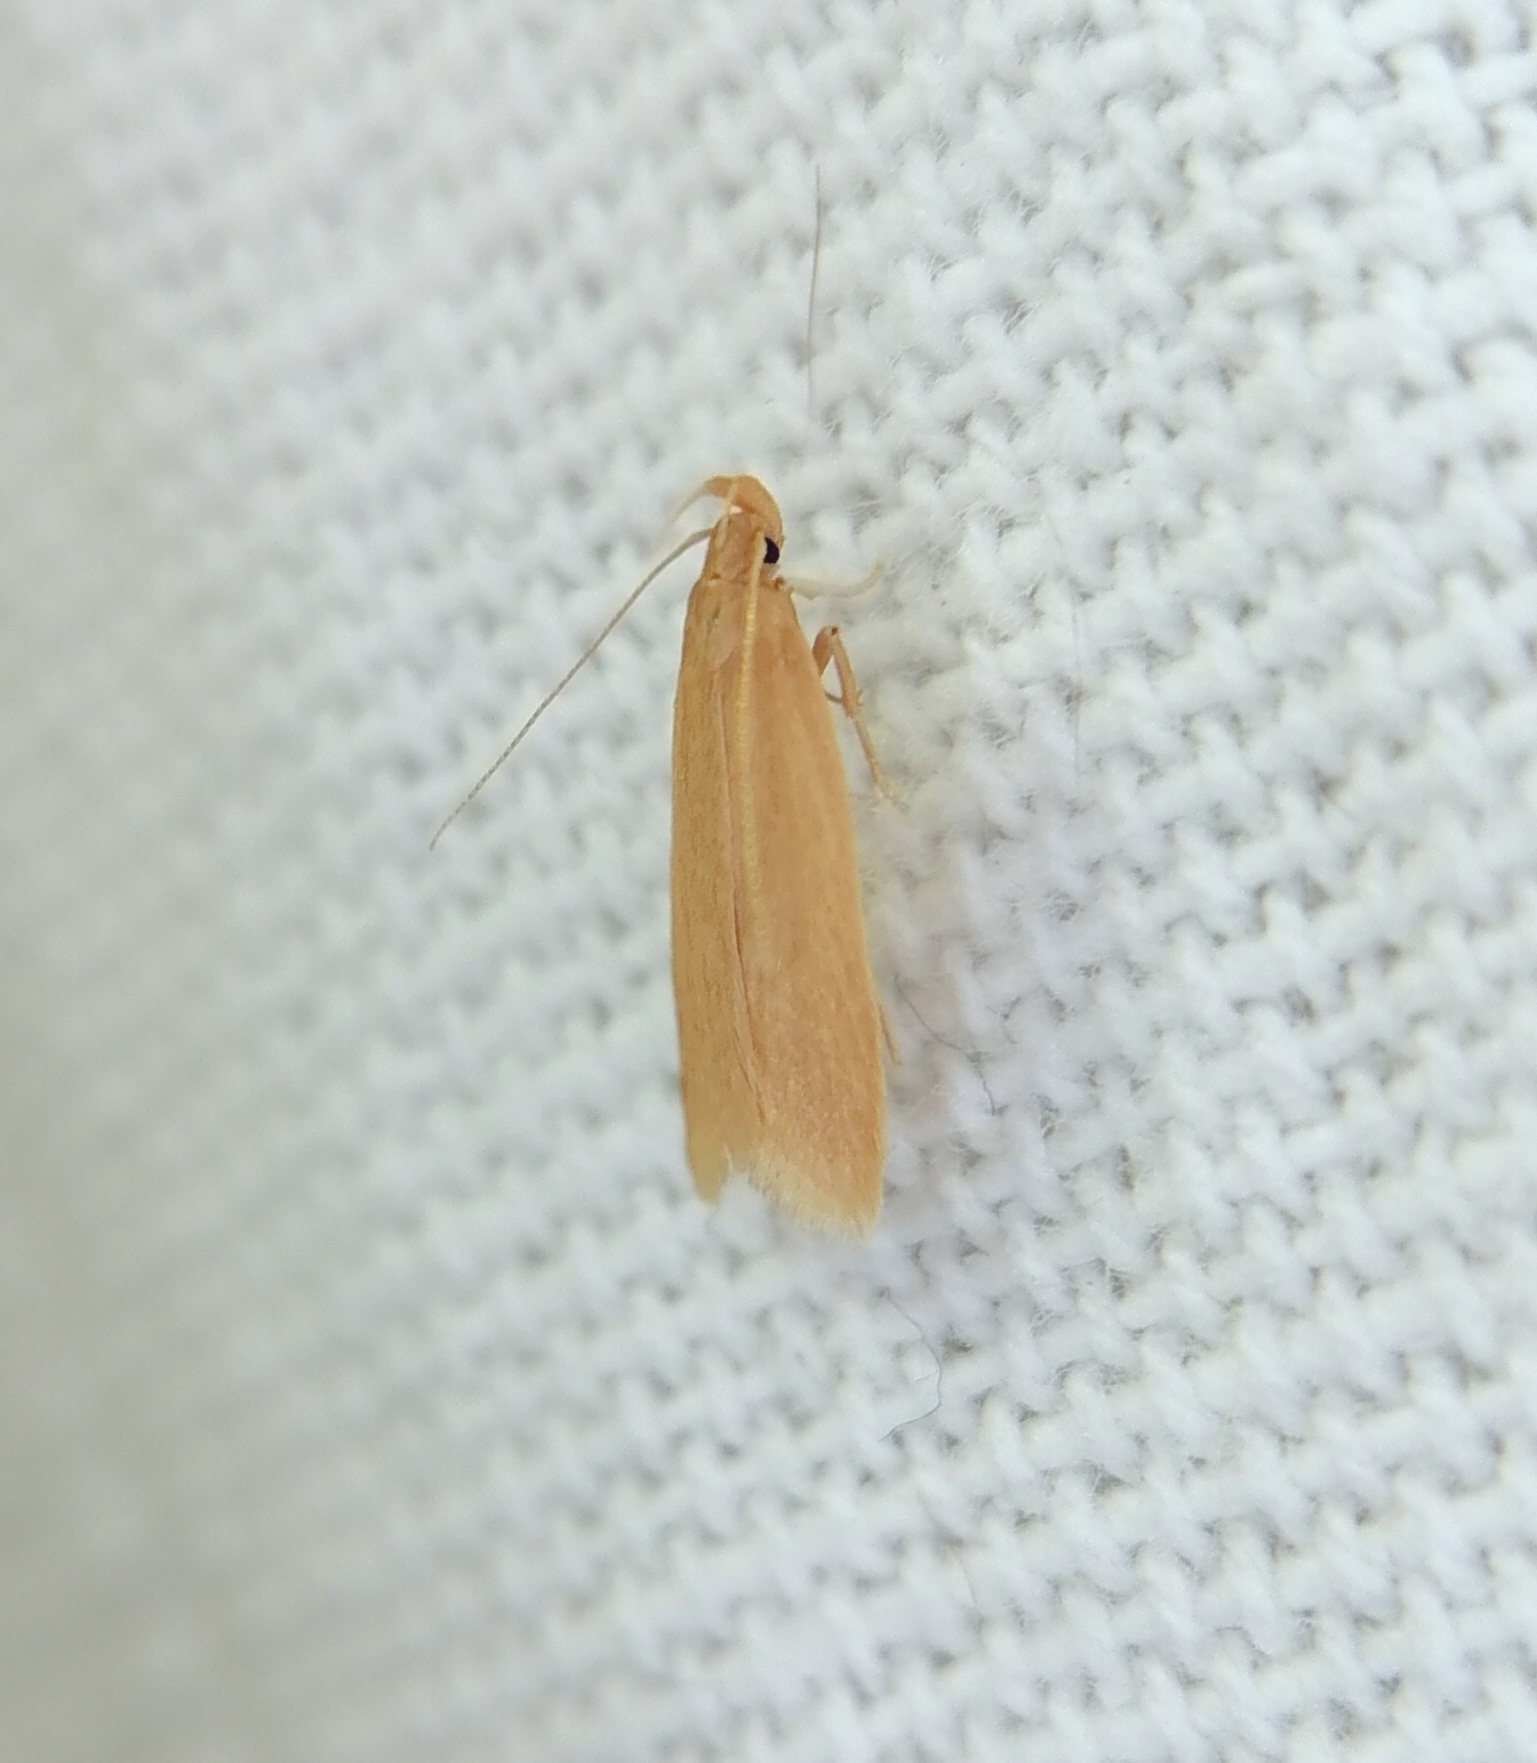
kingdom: Animalia
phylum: Arthropoda
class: Insecta
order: Lepidoptera
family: Gelechiidae
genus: Helcystogramma
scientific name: Helcystogramma rufescens
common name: Orange crest
